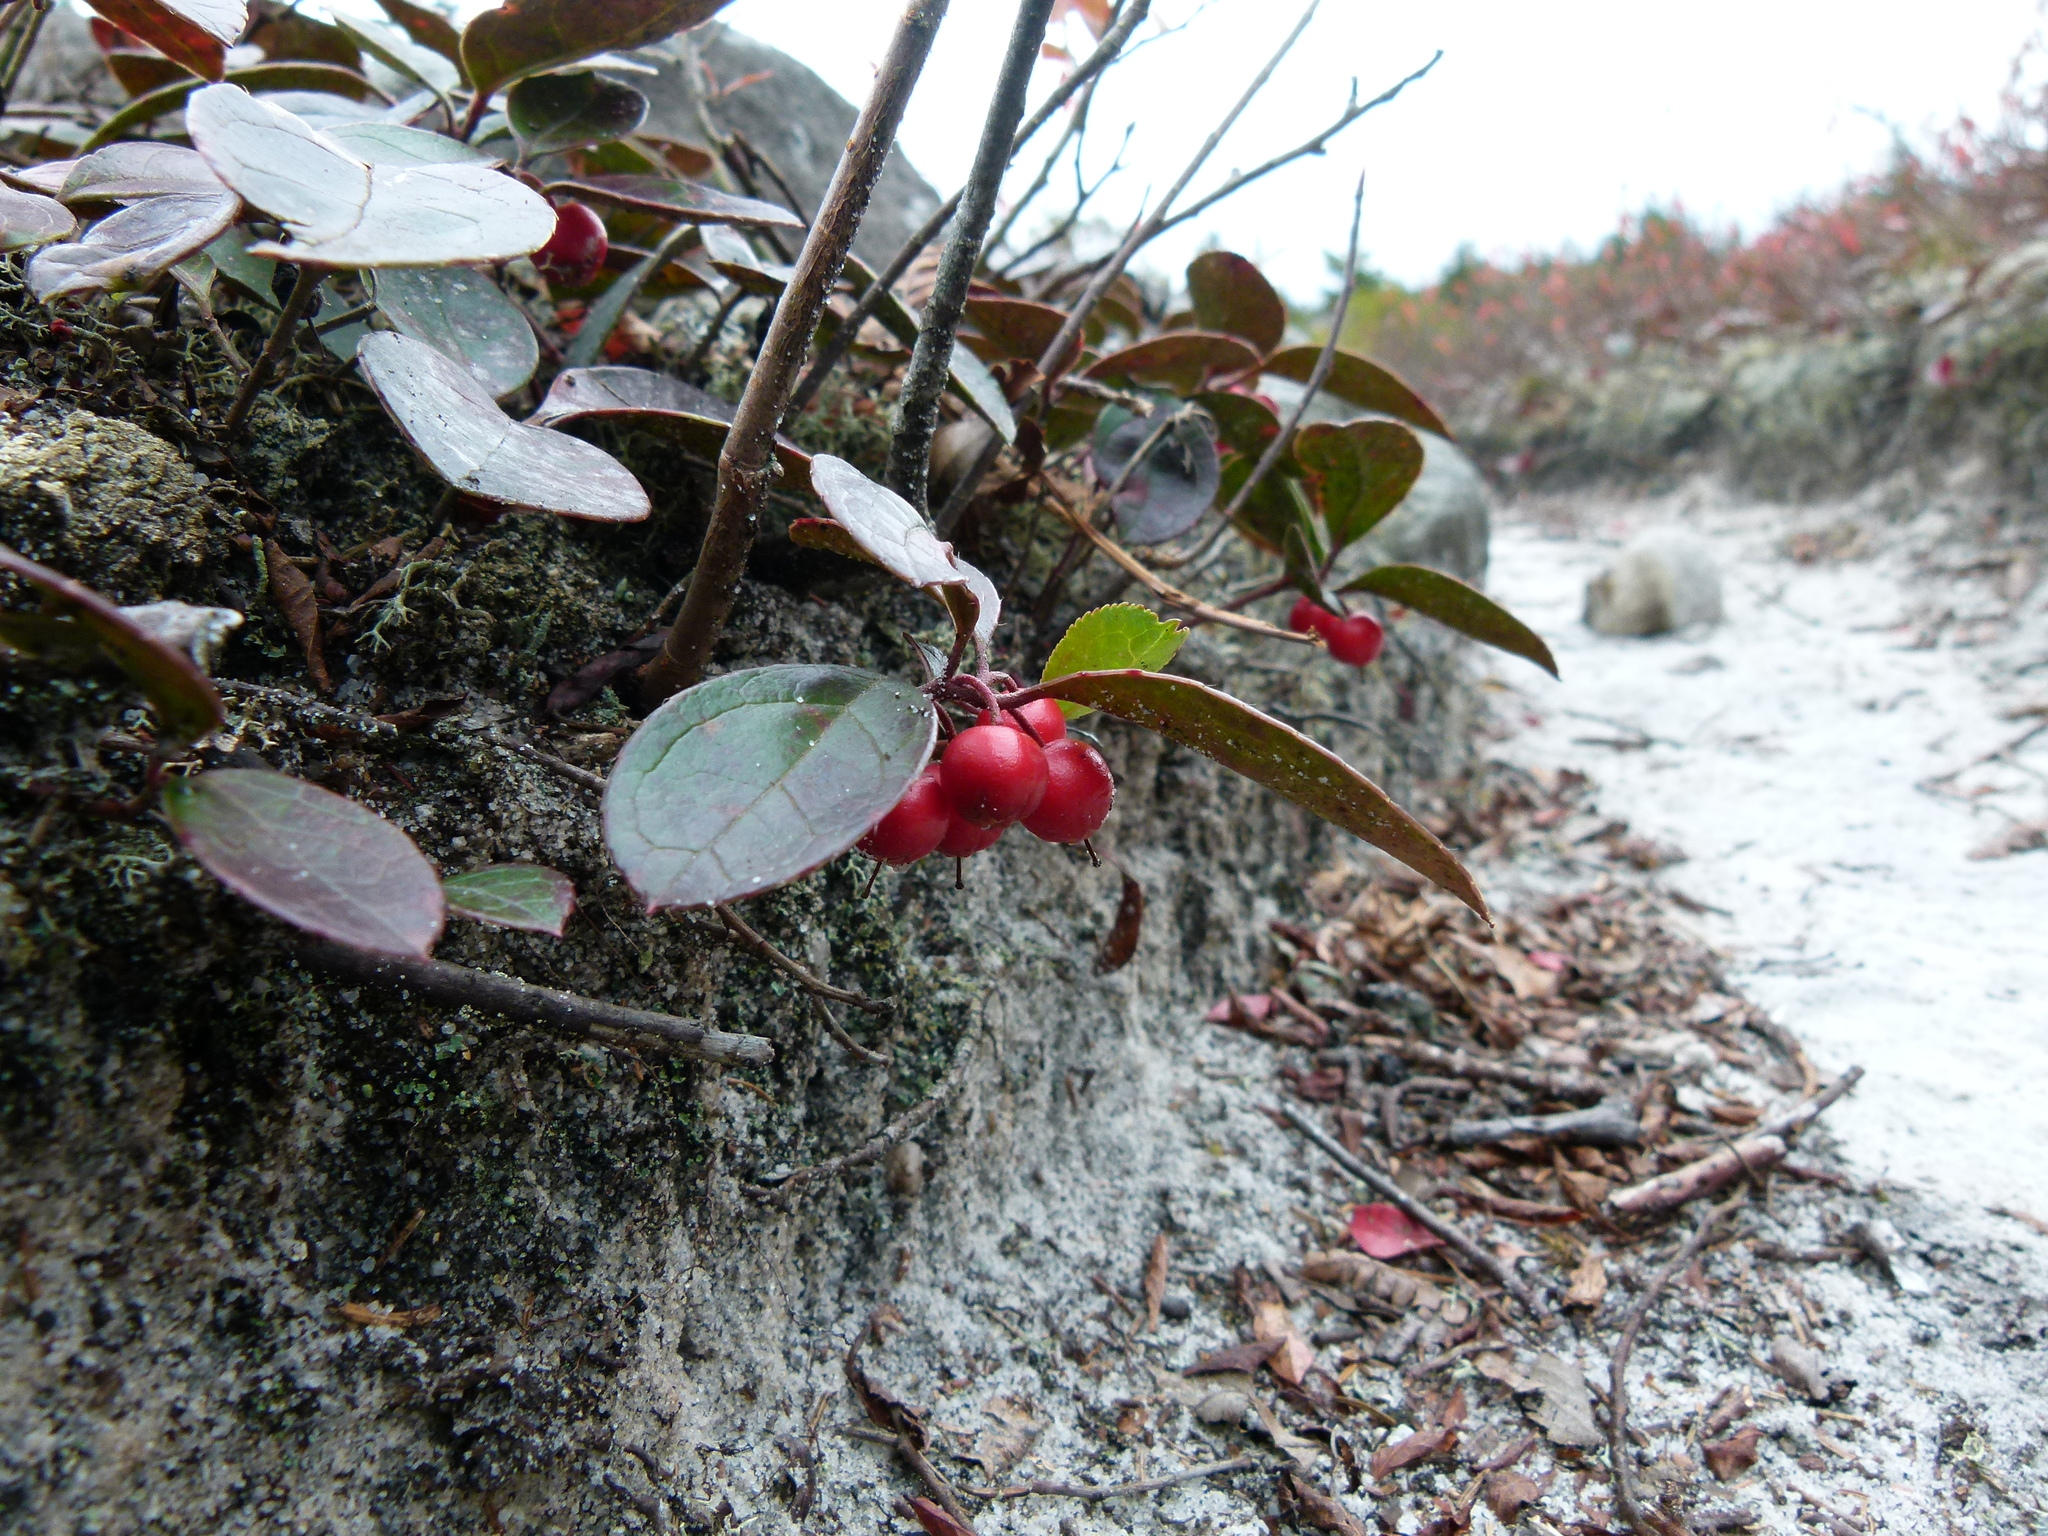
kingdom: Plantae
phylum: Tracheophyta
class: Magnoliopsida
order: Ericales
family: Ericaceae
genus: Gaultheria
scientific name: Gaultheria procumbens
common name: Checkerberry
